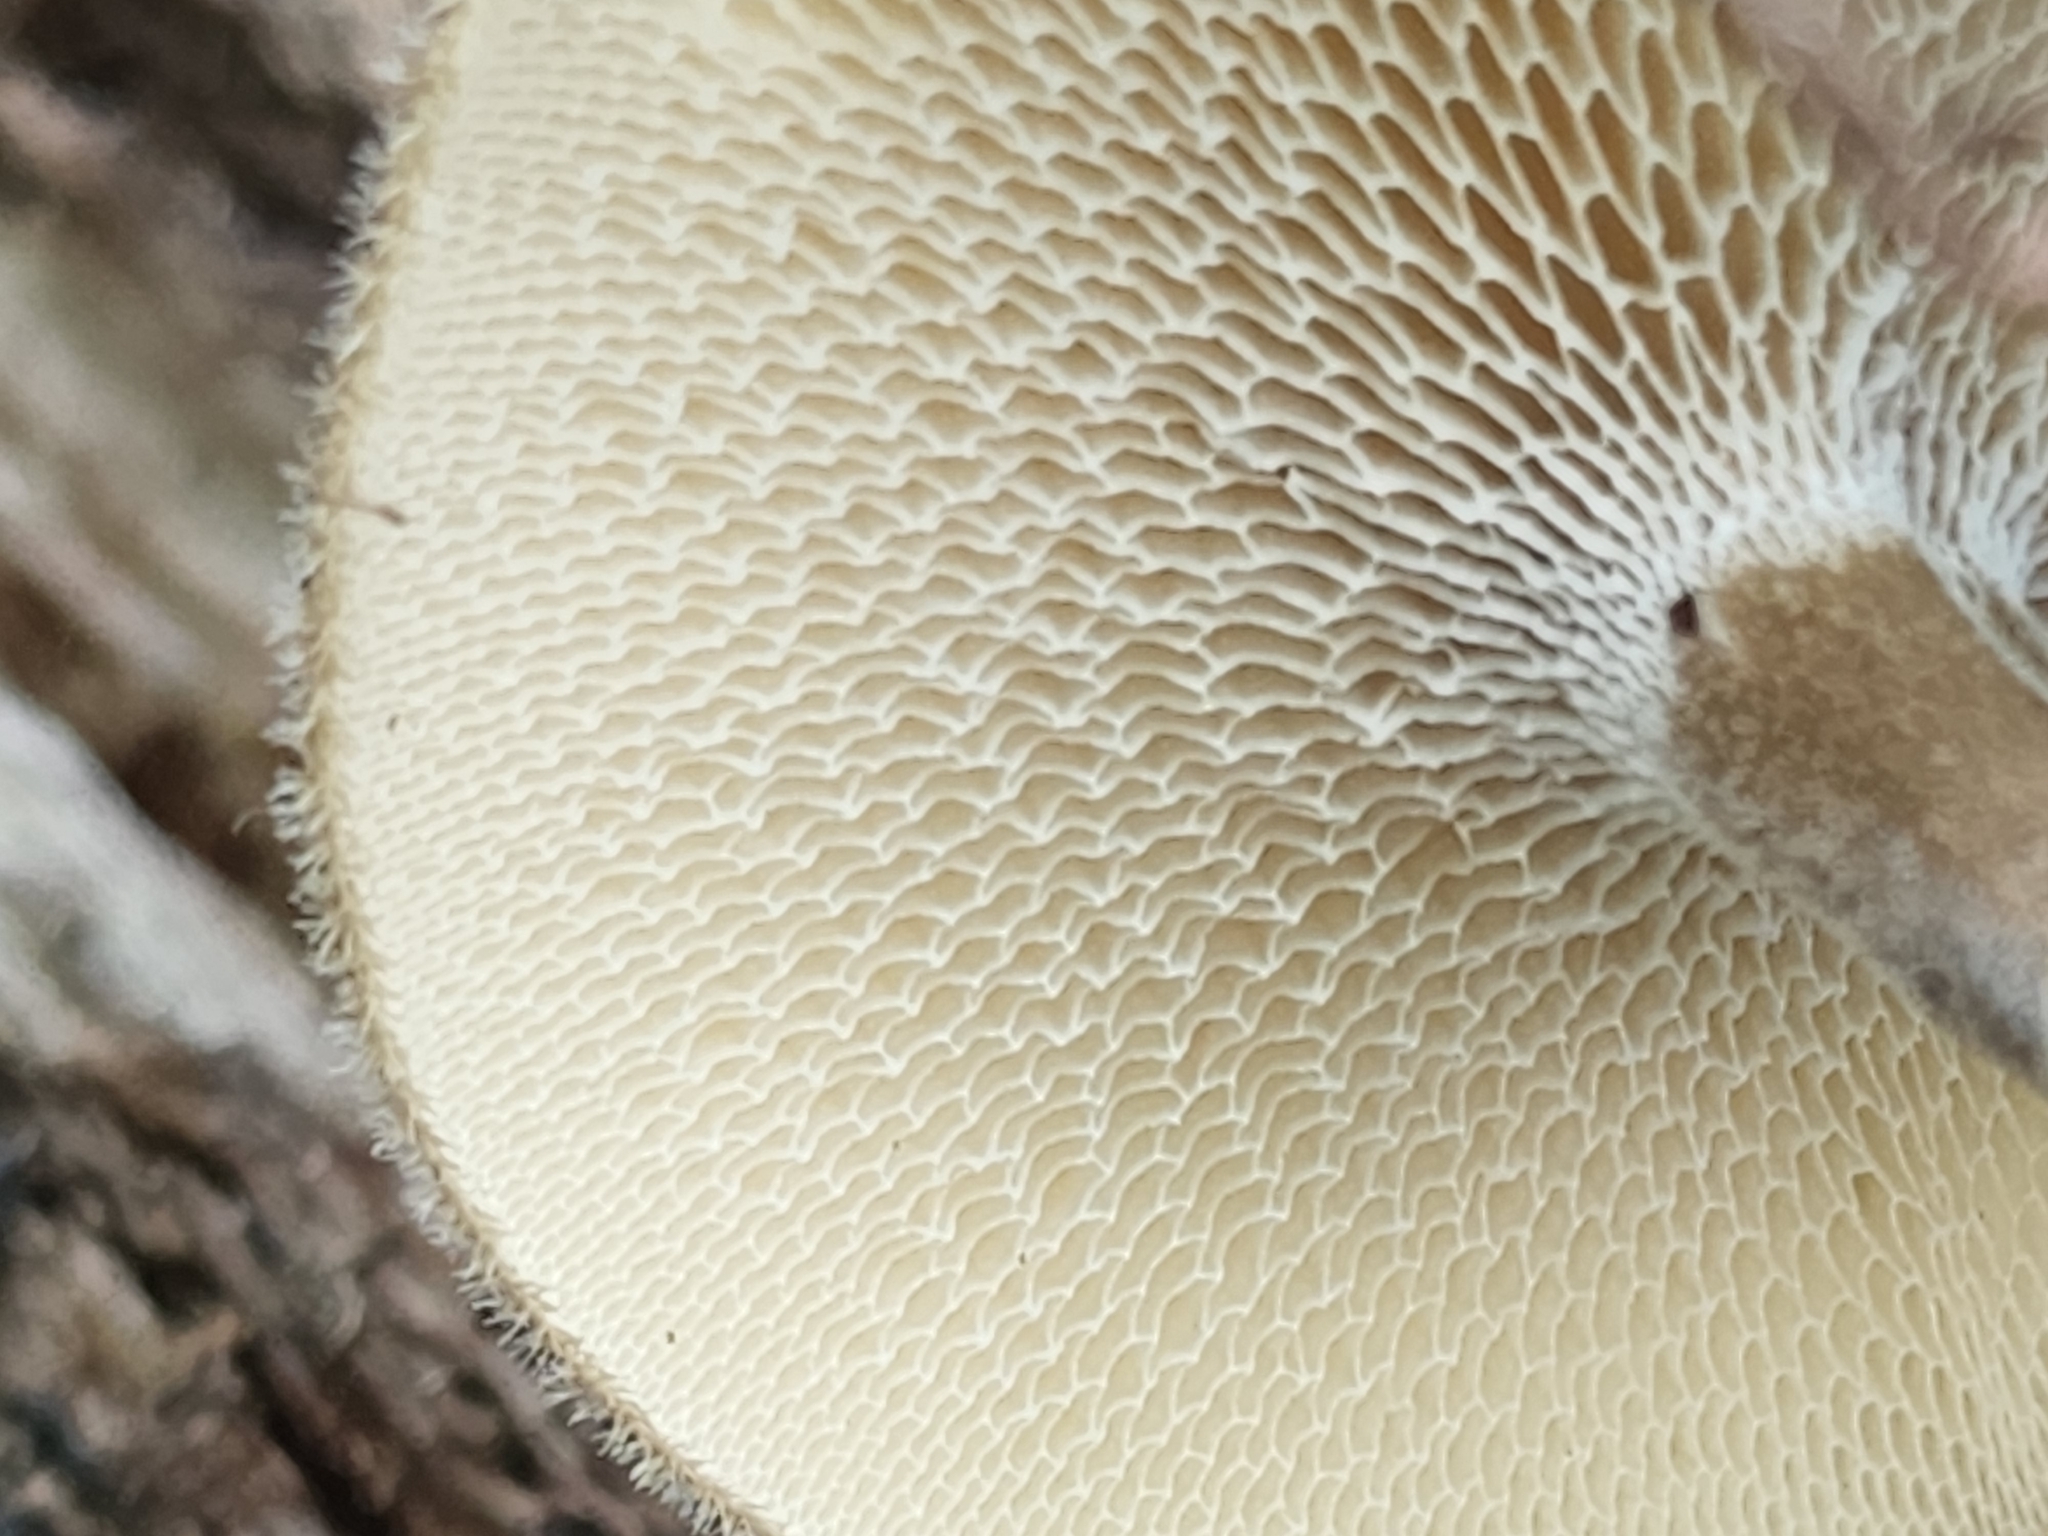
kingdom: Fungi
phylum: Basidiomycota
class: Agaricomycetes
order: Polyporales
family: Polyporaceae
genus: Lentinus
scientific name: Lentinus arcularius
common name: Spring polypore
